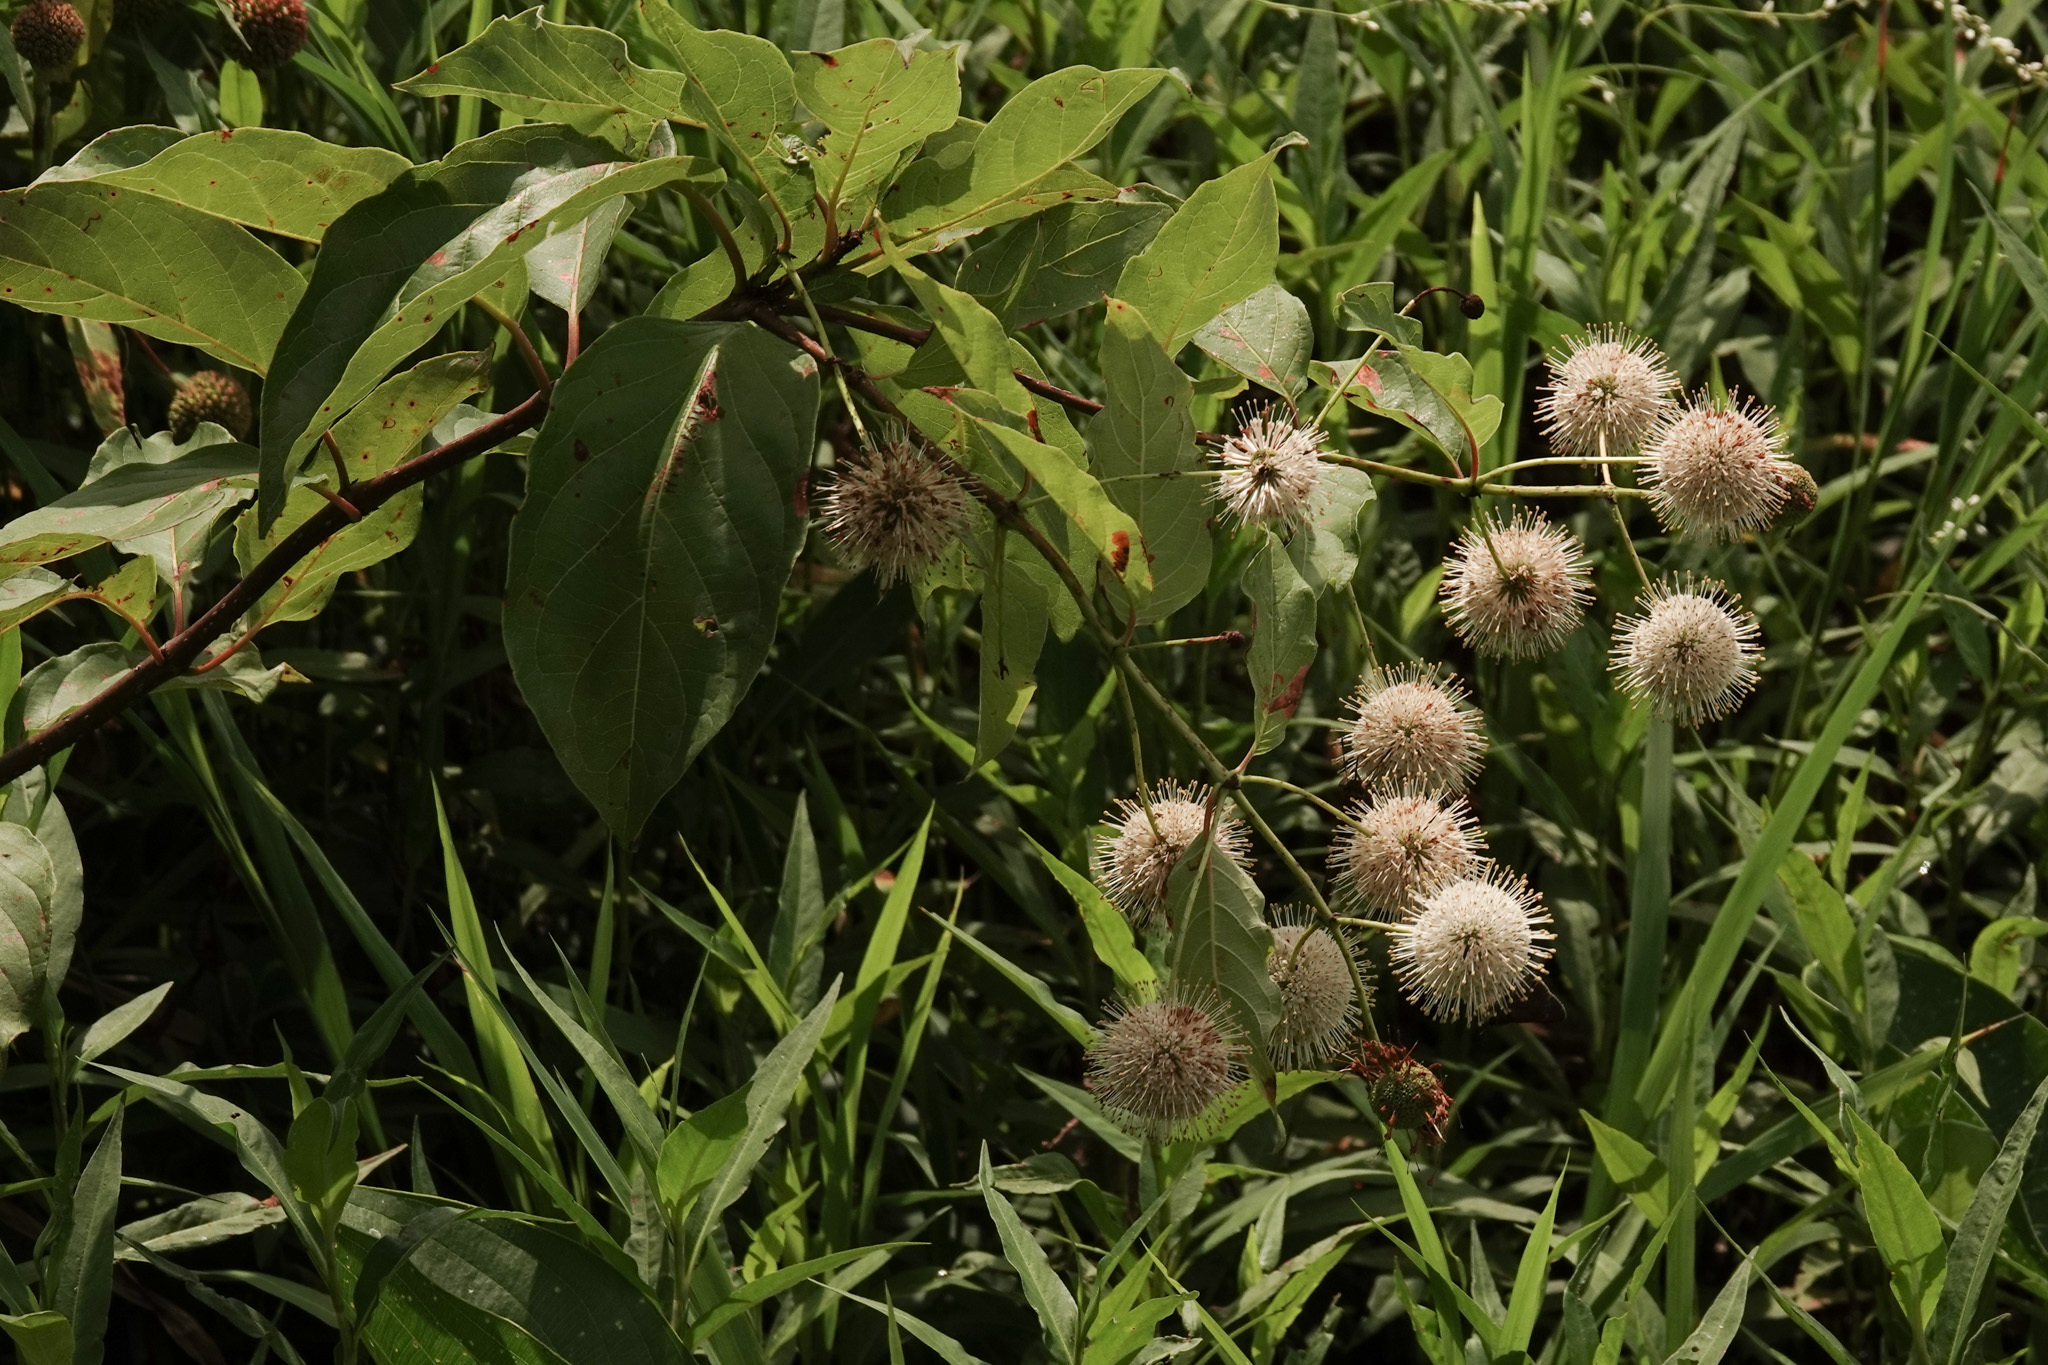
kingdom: Plantae
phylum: Tracheophyta
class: Magnoliopsida
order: Gentianales
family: Rubiaceae
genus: Cephalanthus
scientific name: Cephalanthus occidentalis
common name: Button-willow
